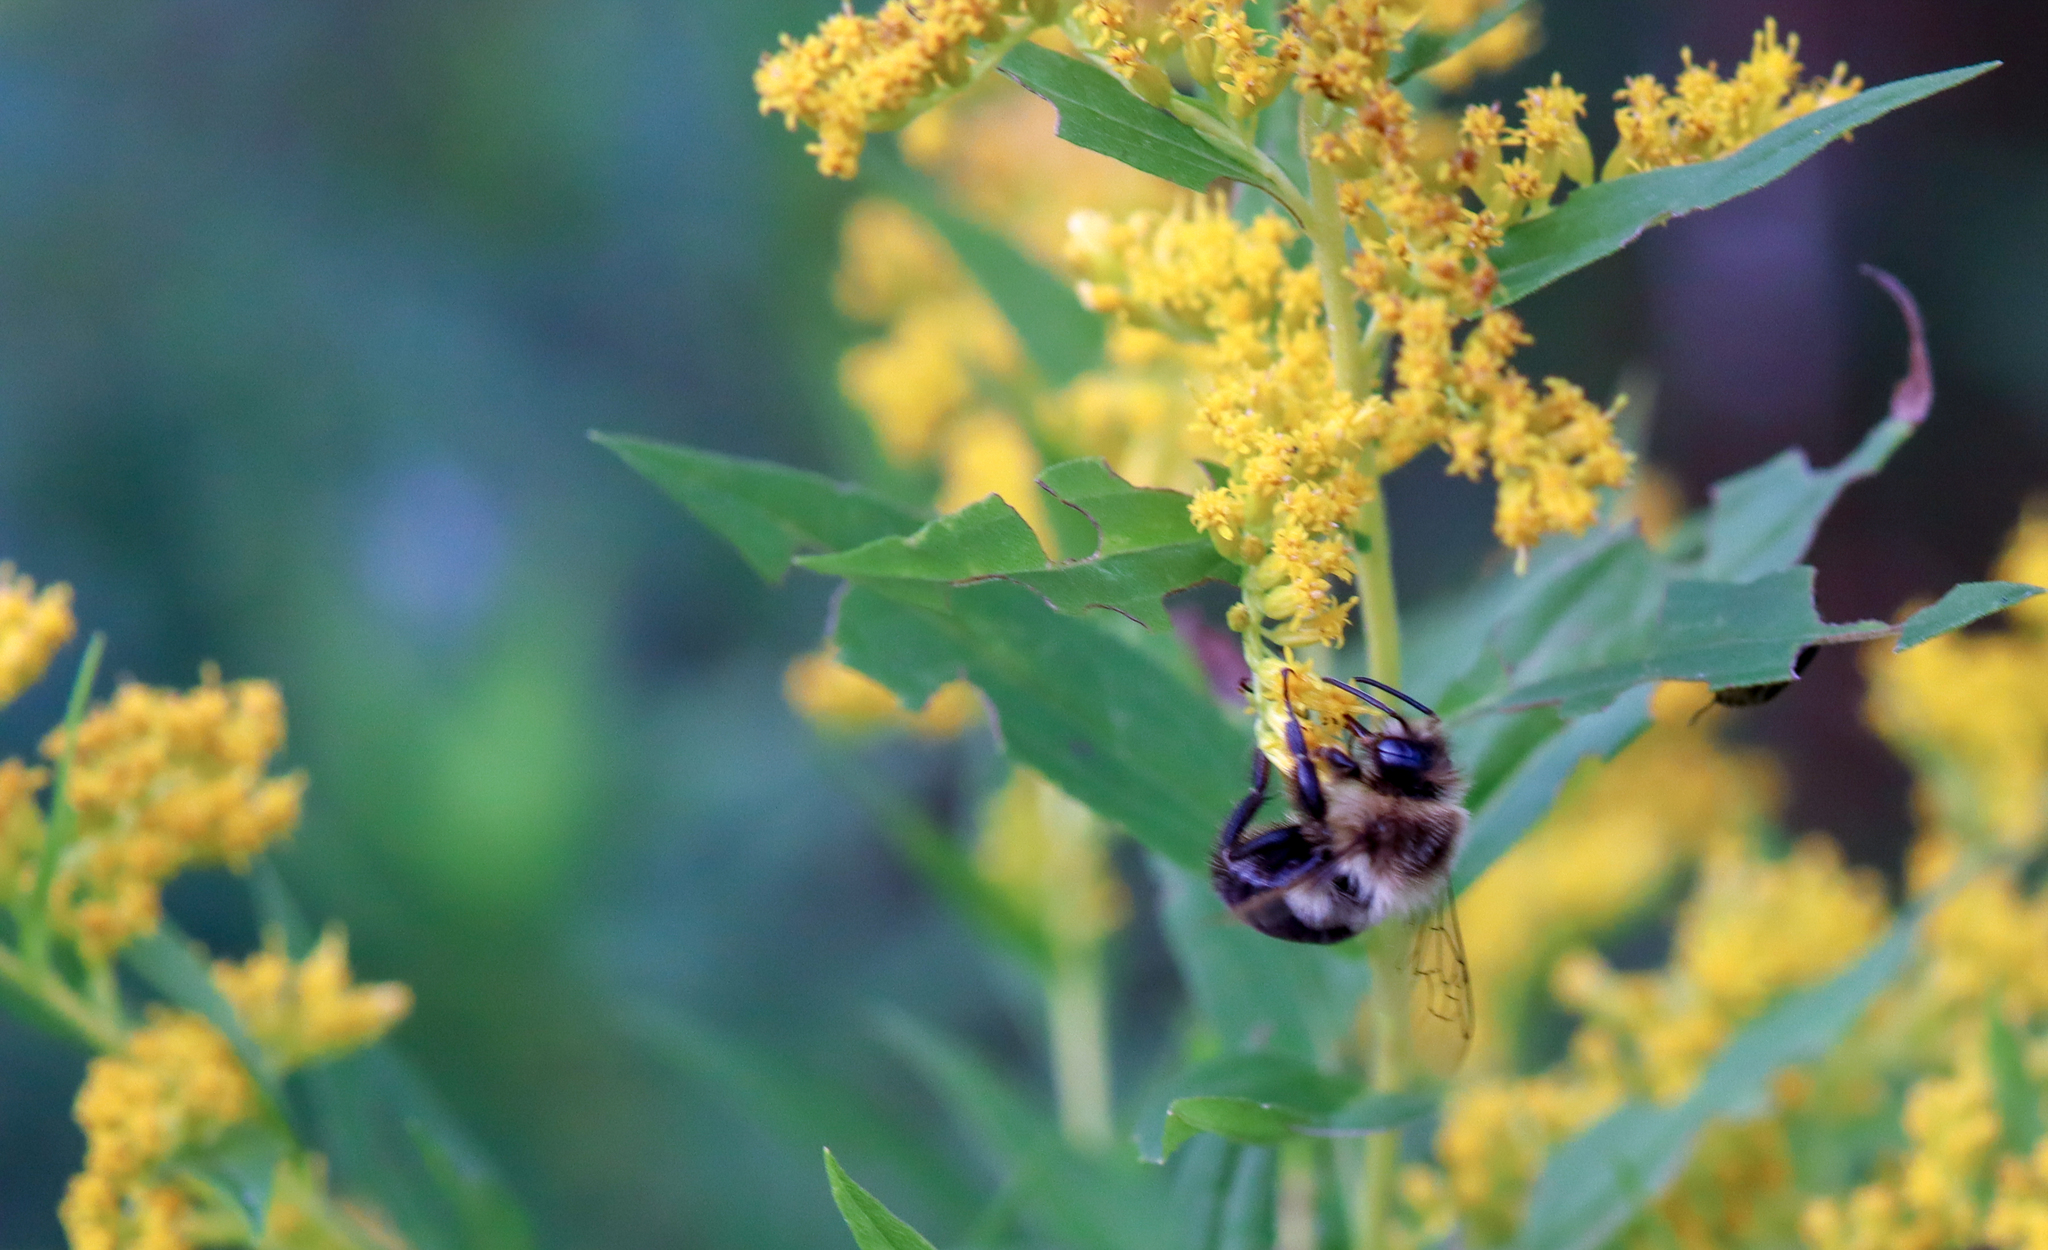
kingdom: Animalia
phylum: Arthropoda
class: Insecta
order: Hymenoptera
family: Apidae
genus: Bombus
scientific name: Bombus impatiens
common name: Common eastern bumble bee
